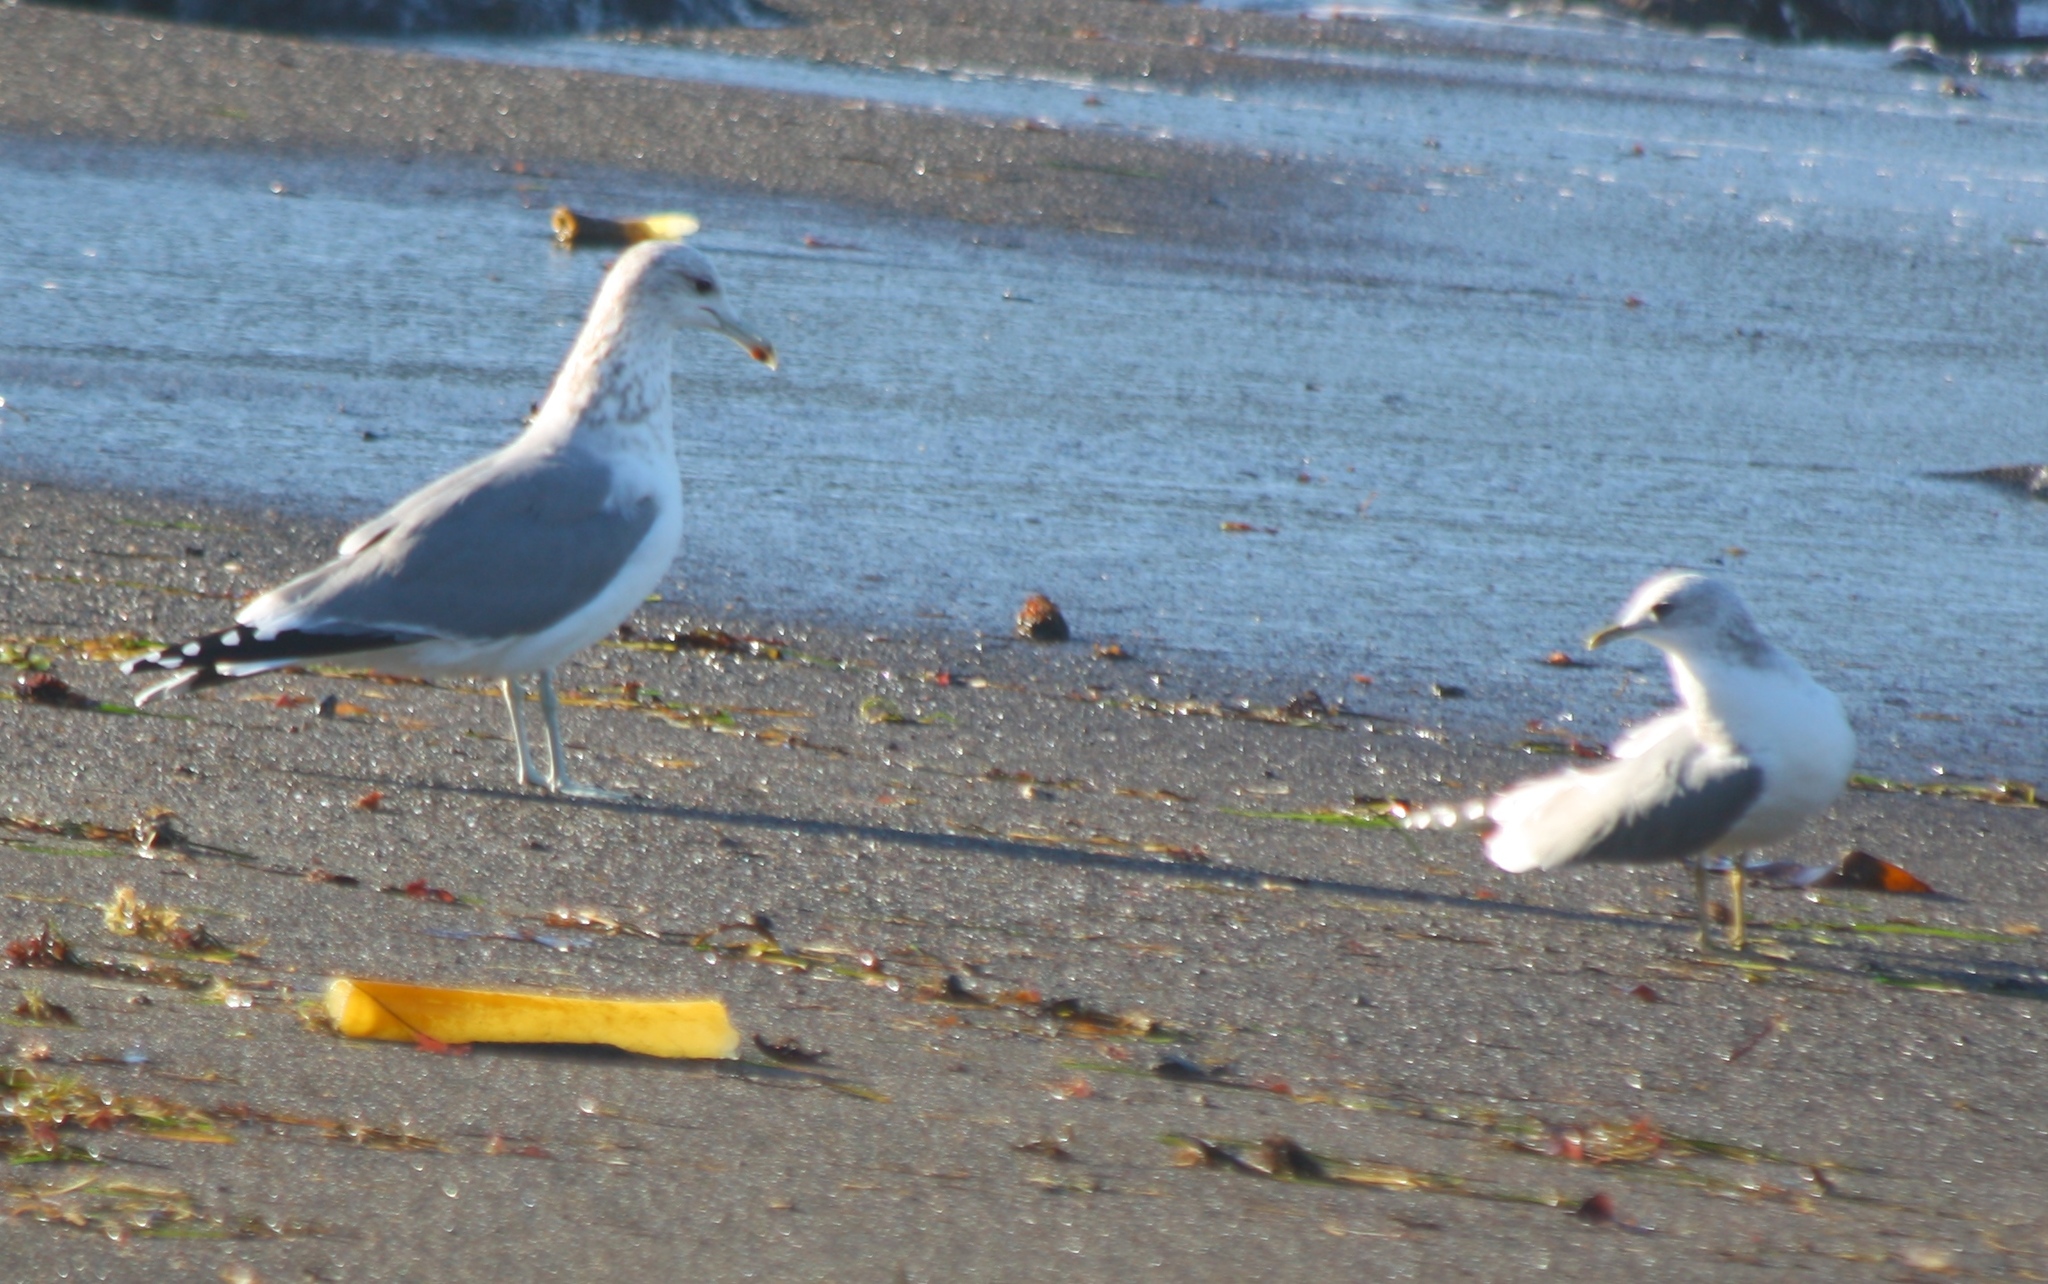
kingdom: Animalia
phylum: Chordata
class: Aves
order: Charadriiformes
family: Laridae
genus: Larus
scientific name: Larus brachyrhynchus
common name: Short-billed gull
